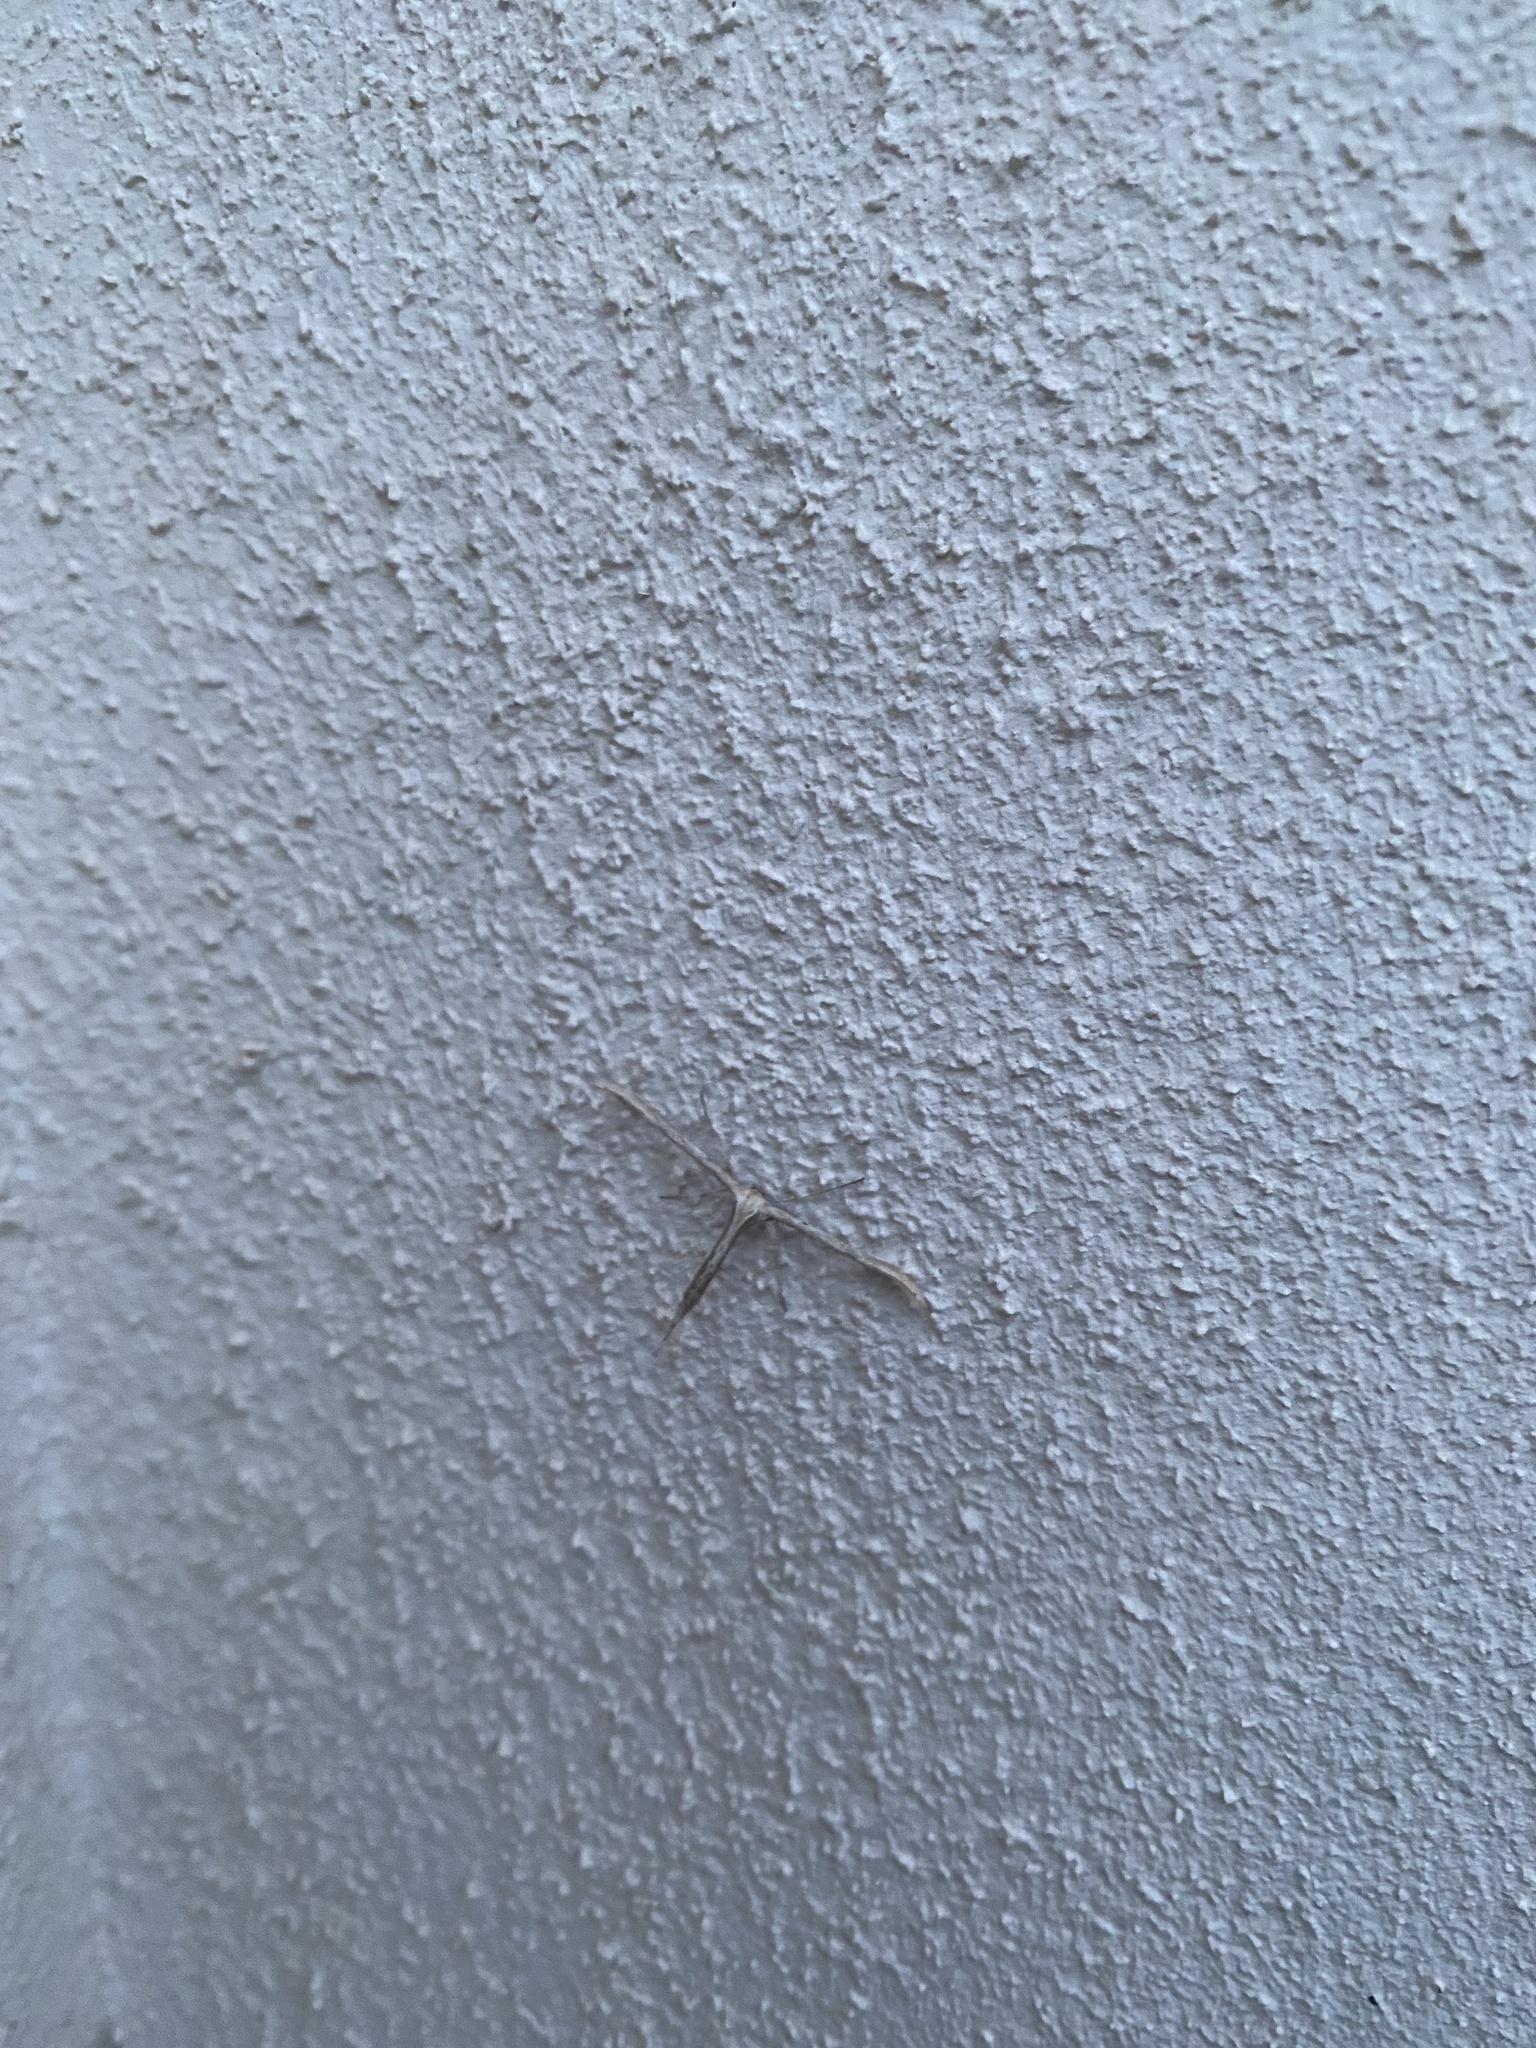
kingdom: Animalia
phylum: Arthropoda
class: Insecta
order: Lepidoptera
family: Pterophoridae
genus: Emmelina
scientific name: Emmelina monodactyla
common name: Common plume
